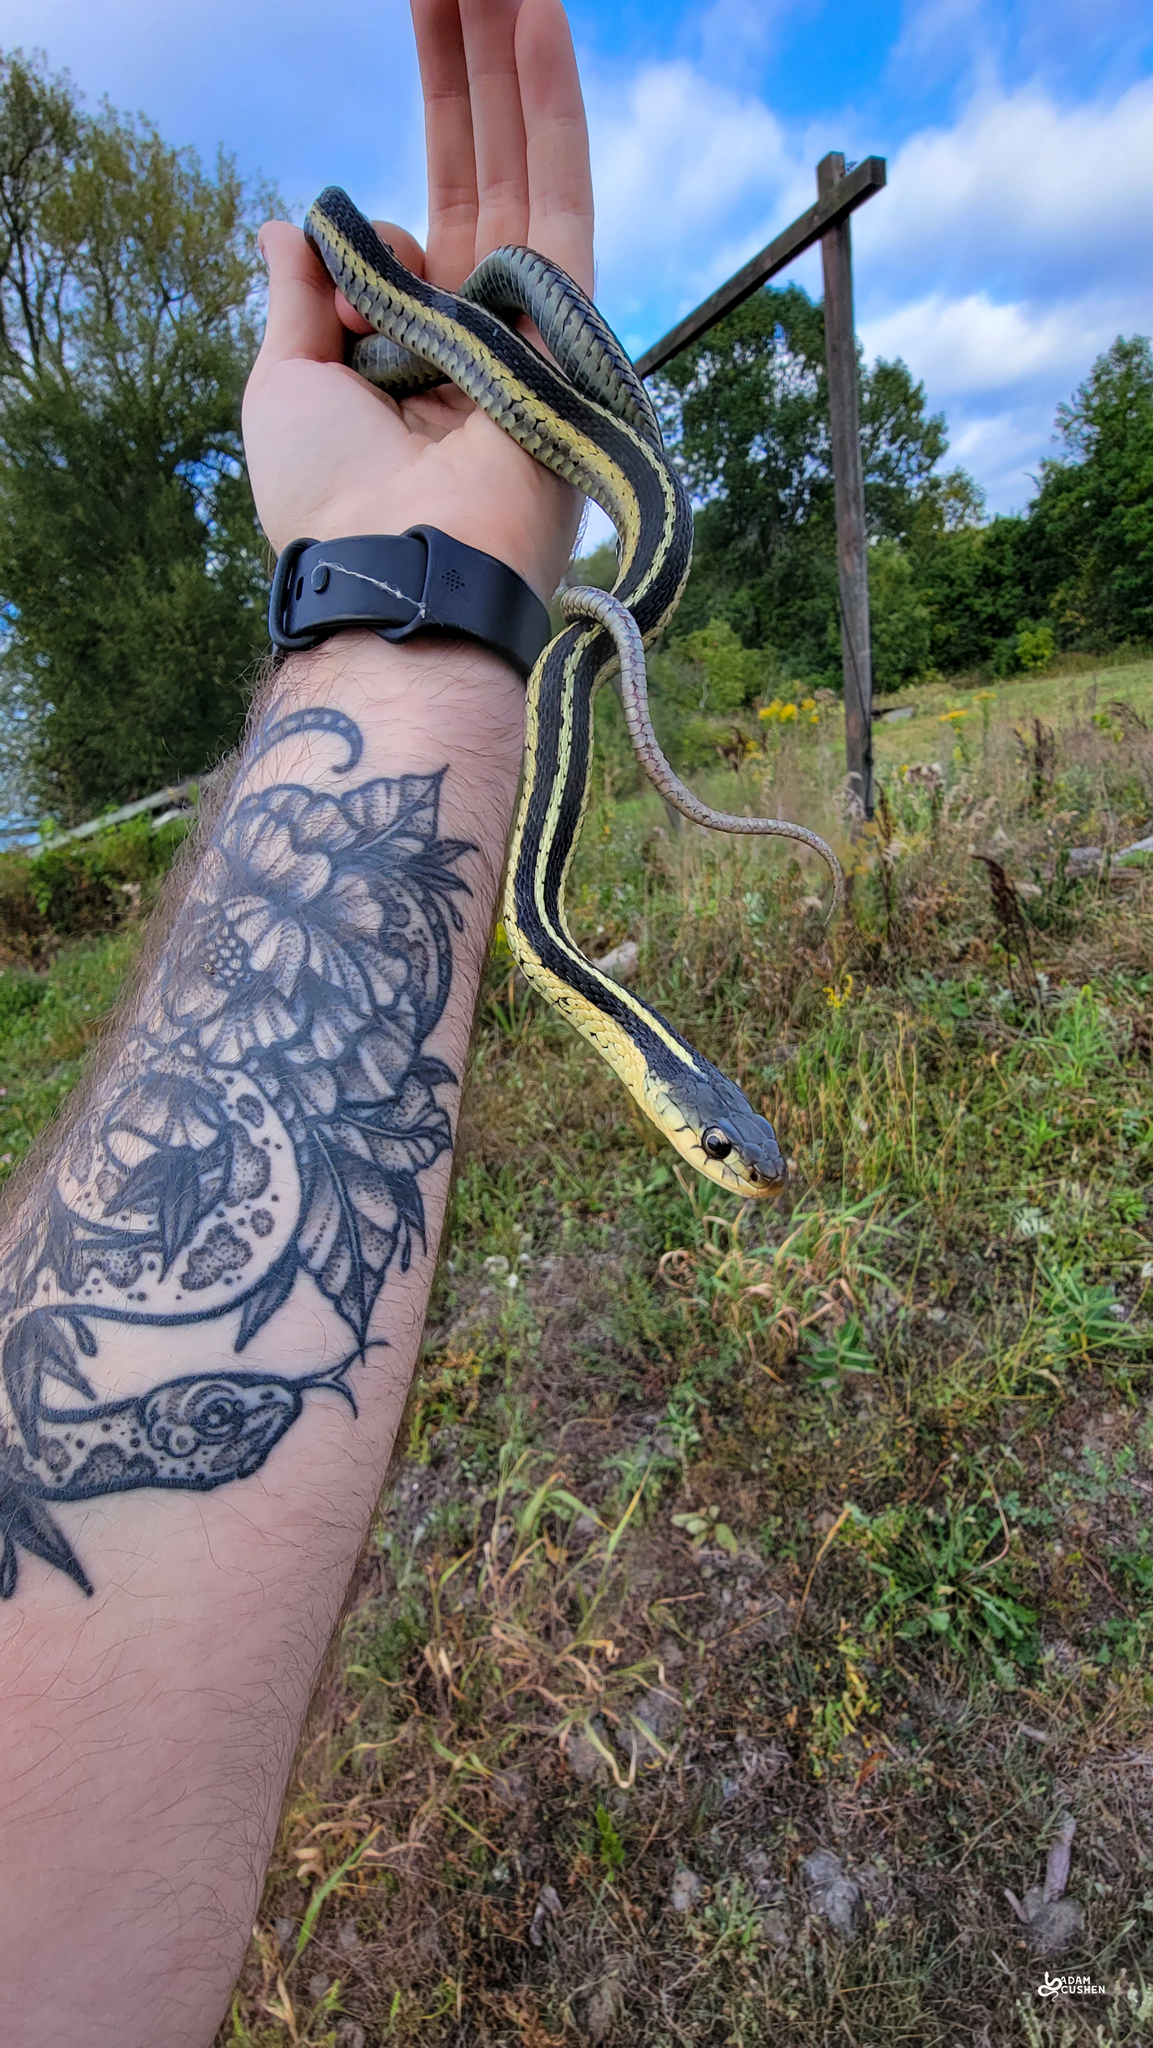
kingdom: Animalia
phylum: Chordata
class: Squamata
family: Colubridae
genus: Thamnophis
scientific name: Thamnophis sirtalis
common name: Common garter snake
